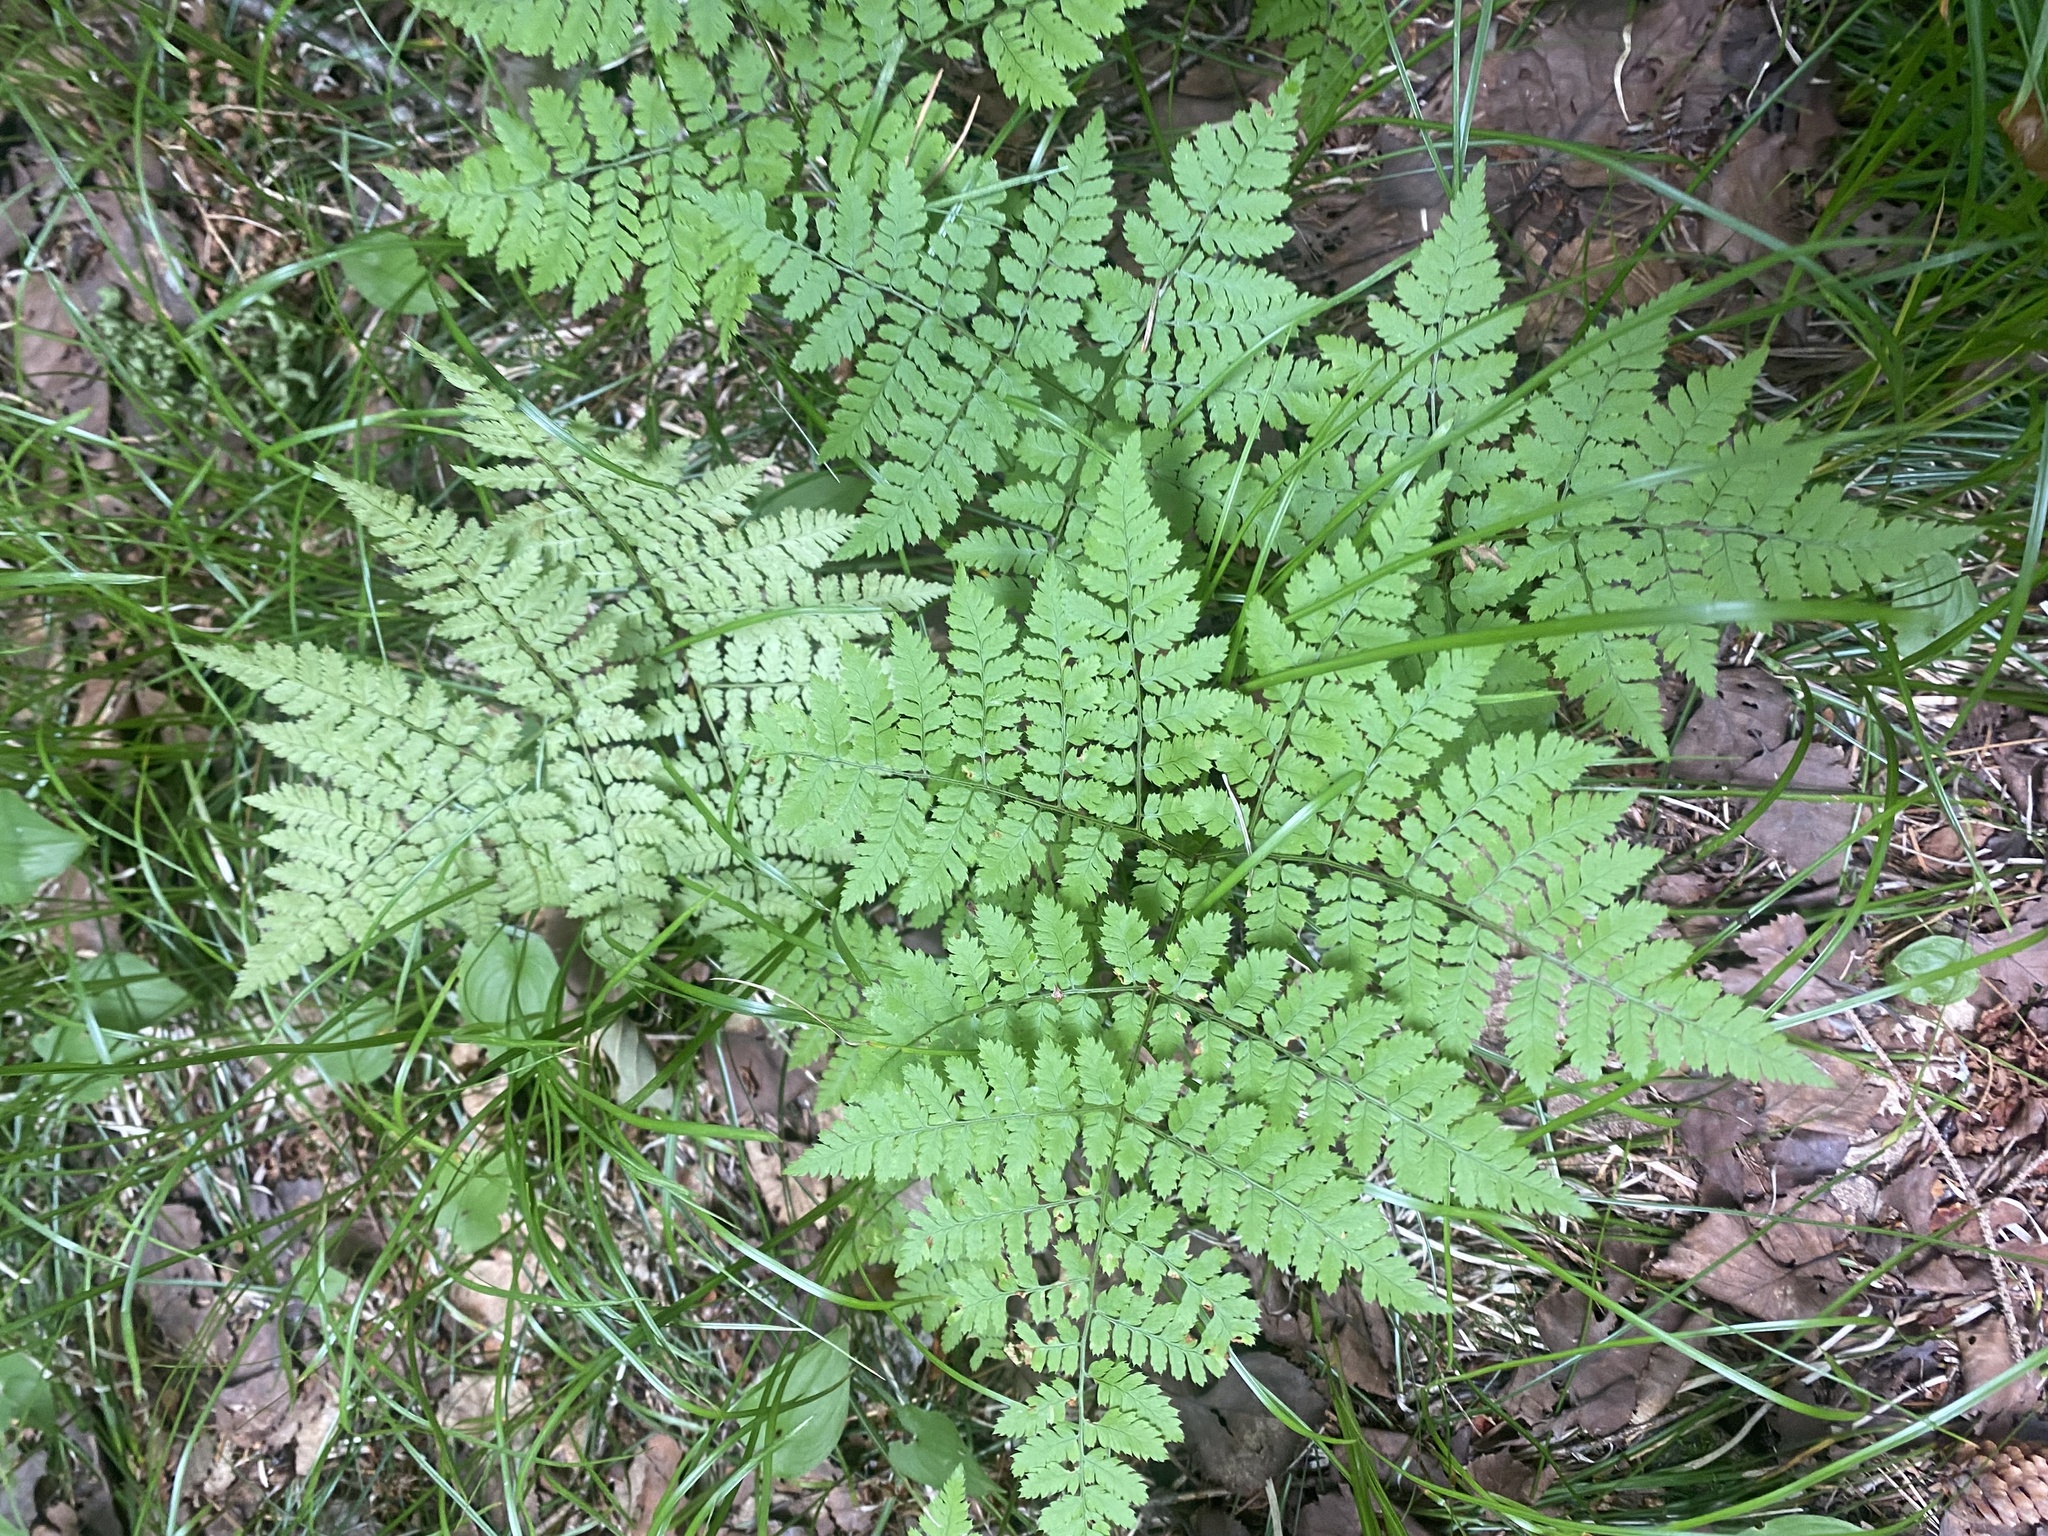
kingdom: Plantae
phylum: Tracheophyta
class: Polypodiopsida
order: Polypodiales
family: Dryopteridaceae
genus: Dryopteris
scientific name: Dryopteris amurensis
